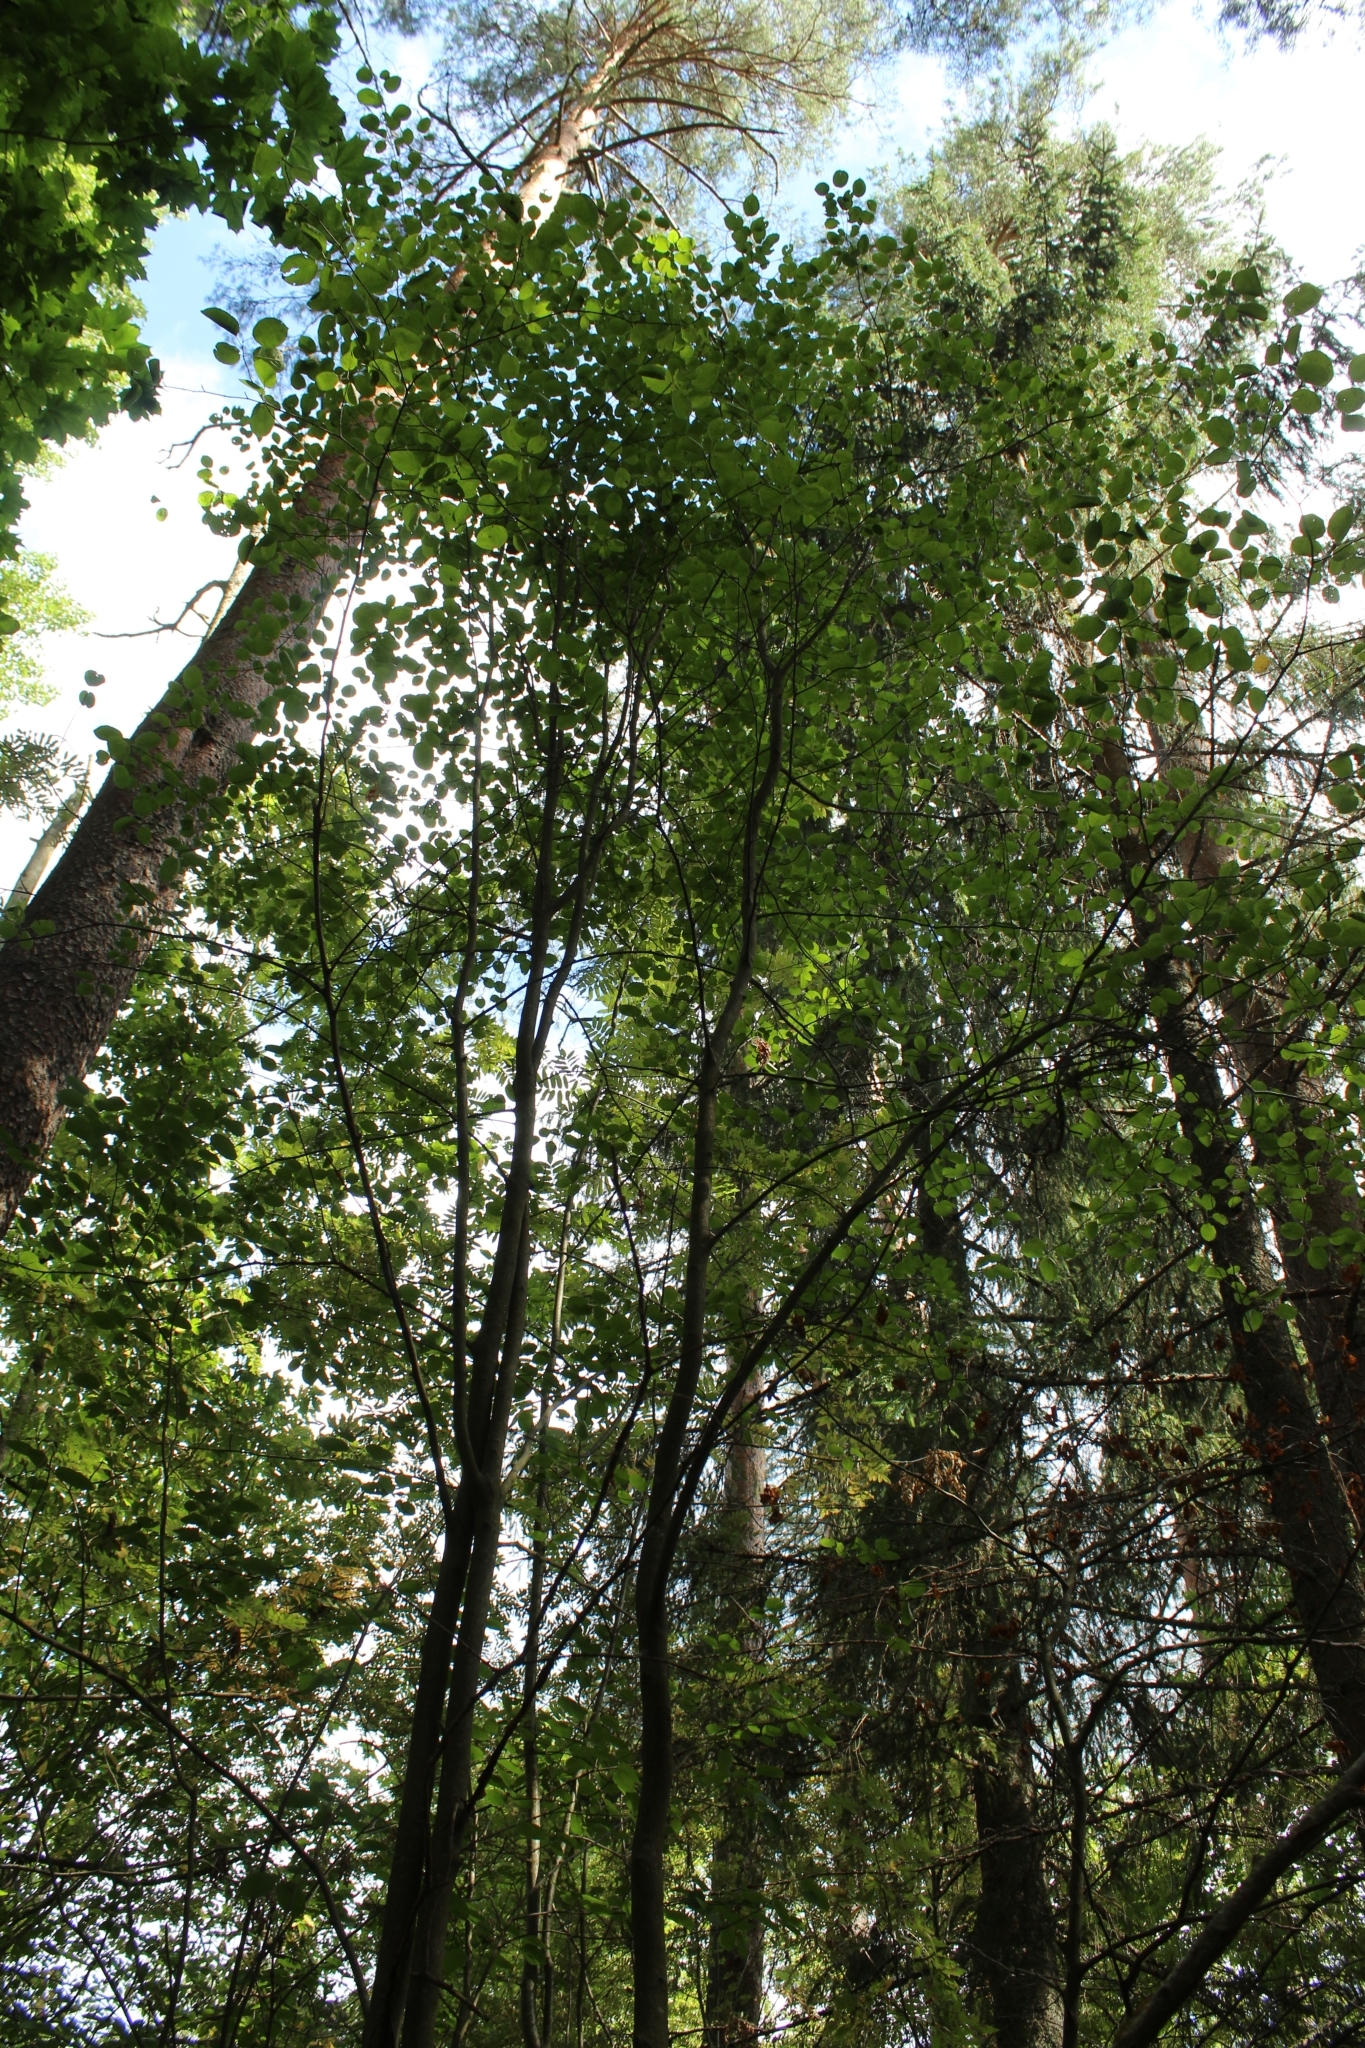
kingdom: Plantae
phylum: Tracheophyta
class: Magnoliopsida
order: Rosales
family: Rosaceae
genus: Amelanchier
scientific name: Amelanchier
